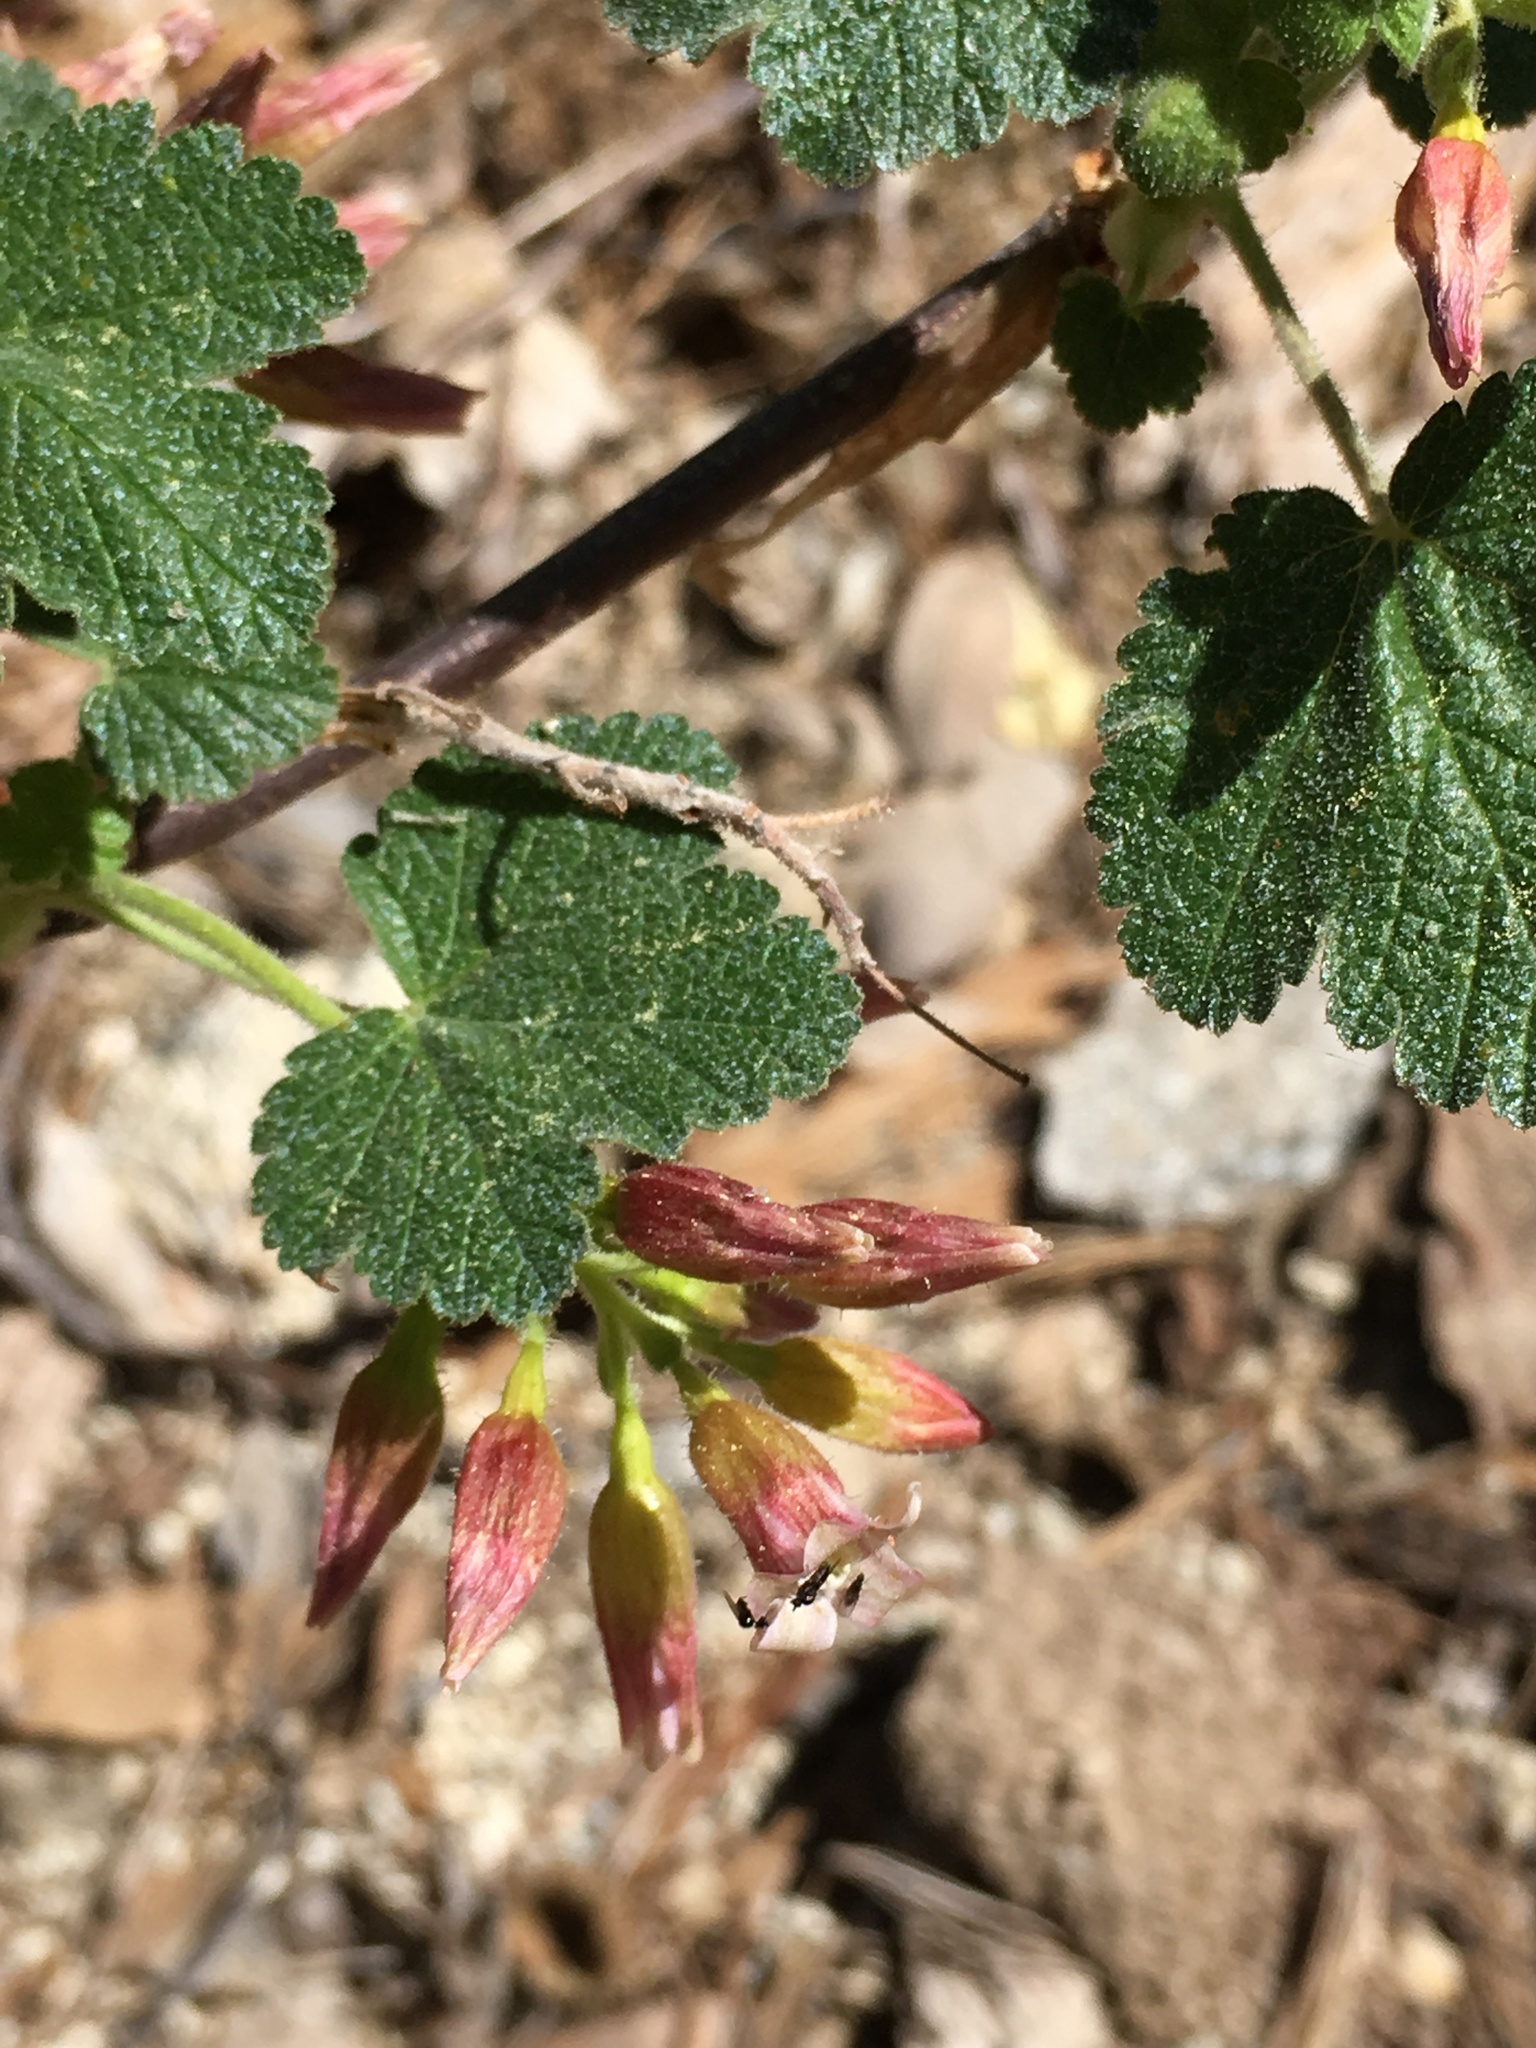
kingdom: Plantae
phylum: Tracheophyta
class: Magnoliopsida
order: Saxifragales
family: Grossulariaceae
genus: Ribes
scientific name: Ribes viscosissimum
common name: Sticky currant
